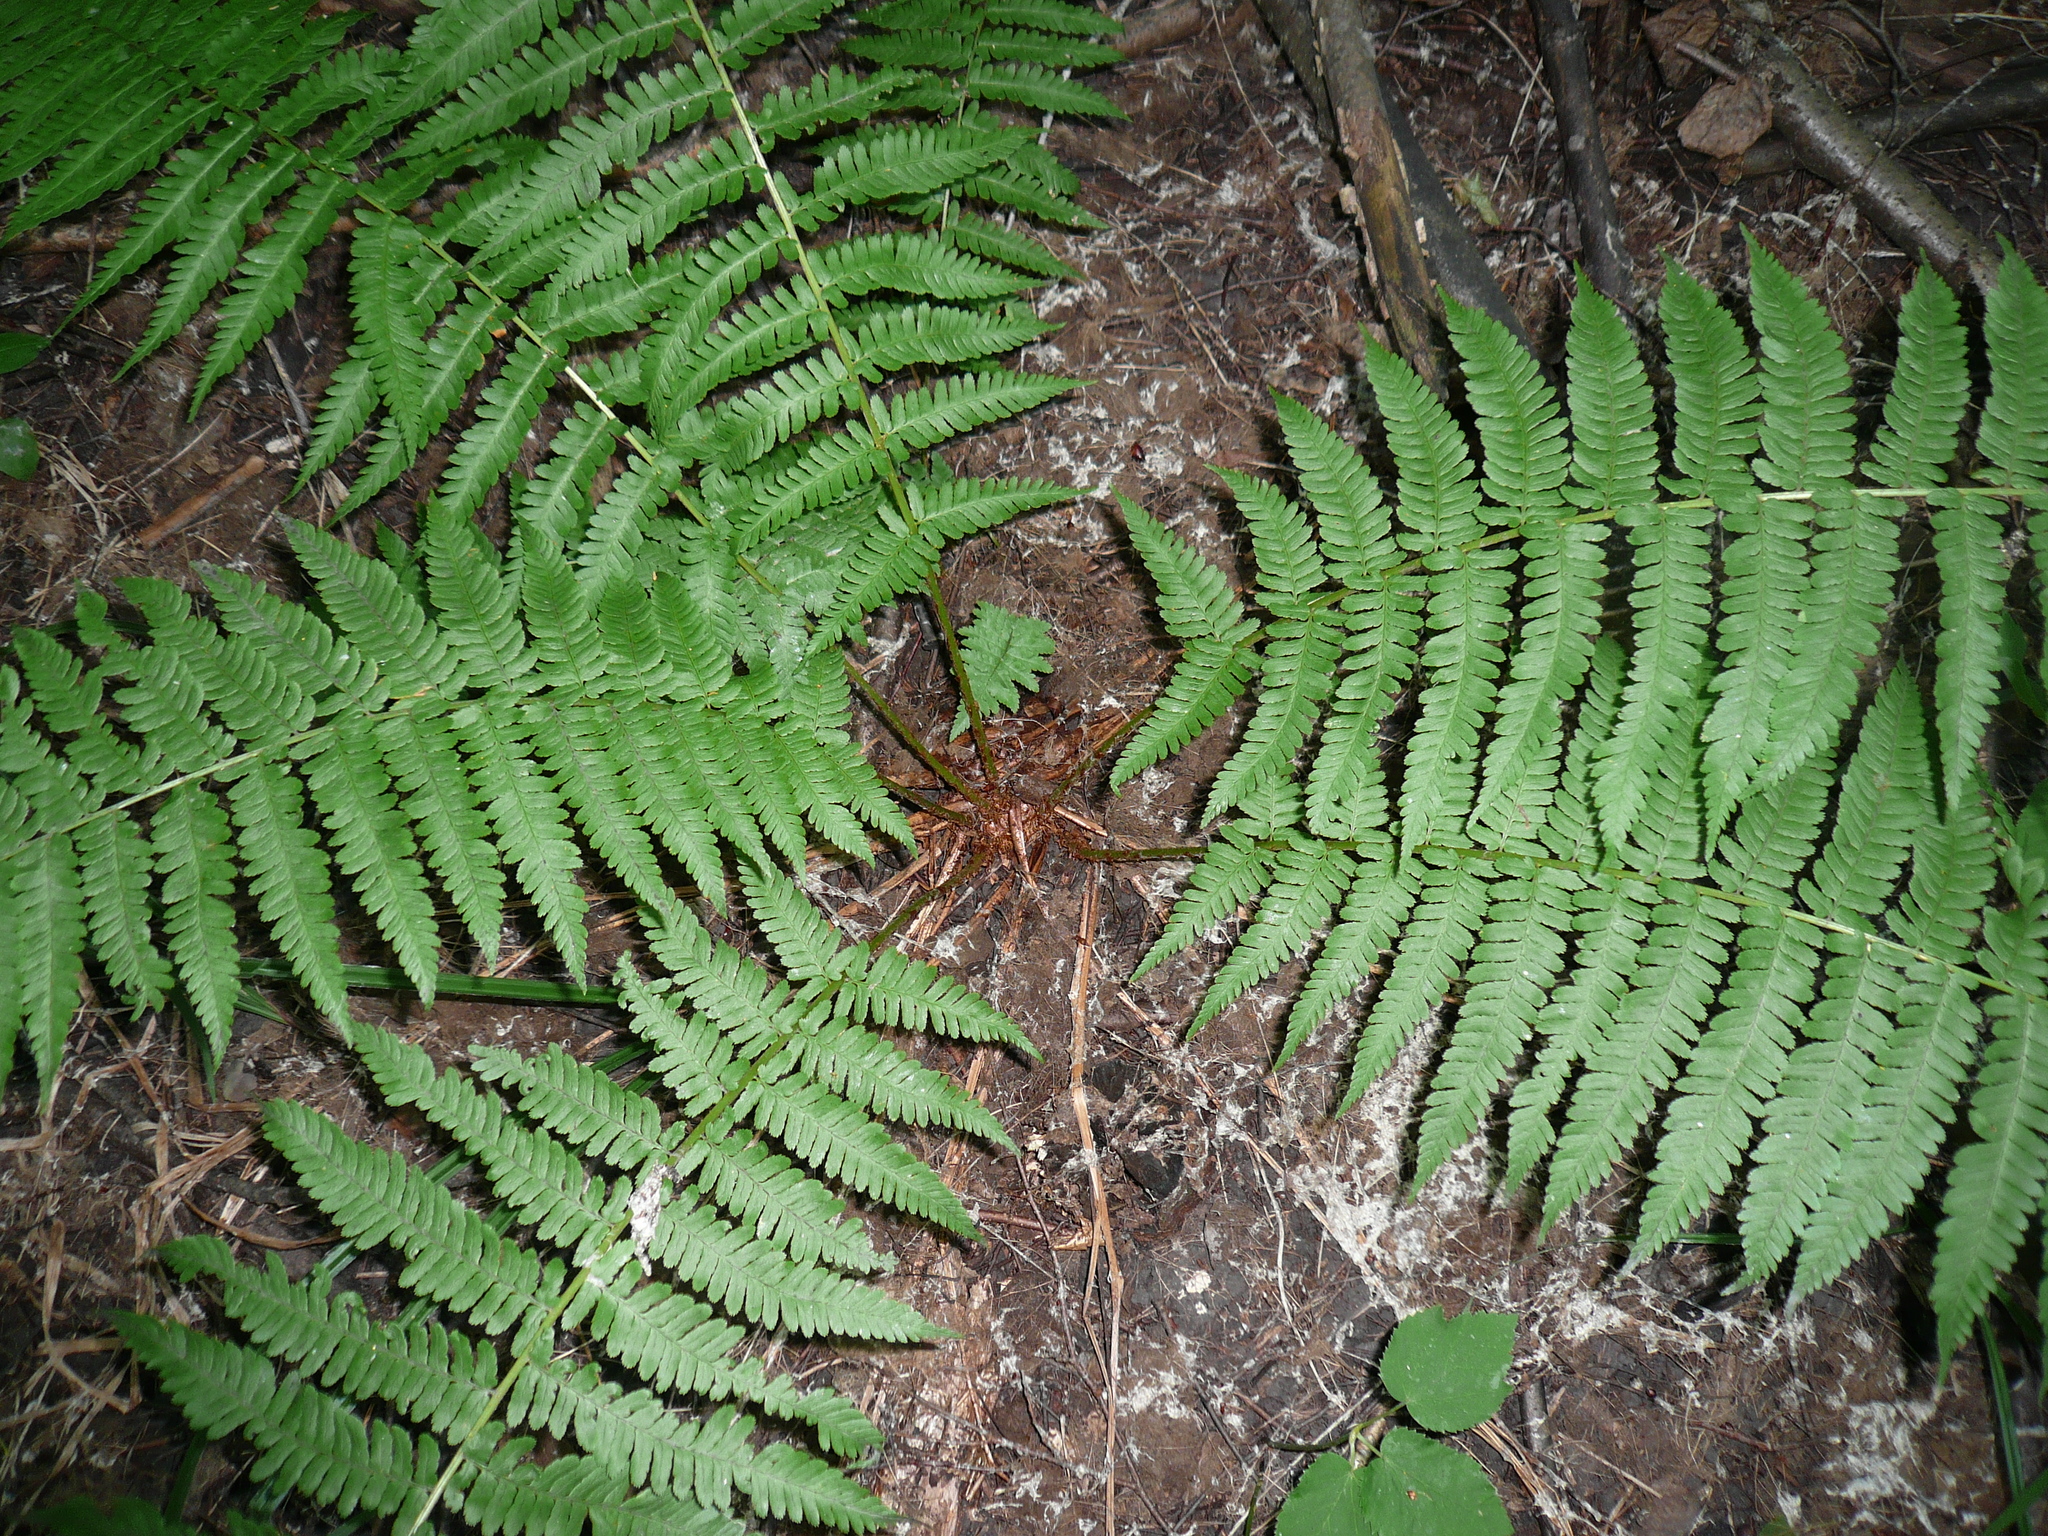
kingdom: Plantae
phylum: Tracheophyta
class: Polypodiopsida
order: Polypodiales
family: Dryopteridaceae
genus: Dryopteris
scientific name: Dryopteris filix-mas
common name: Male fern
